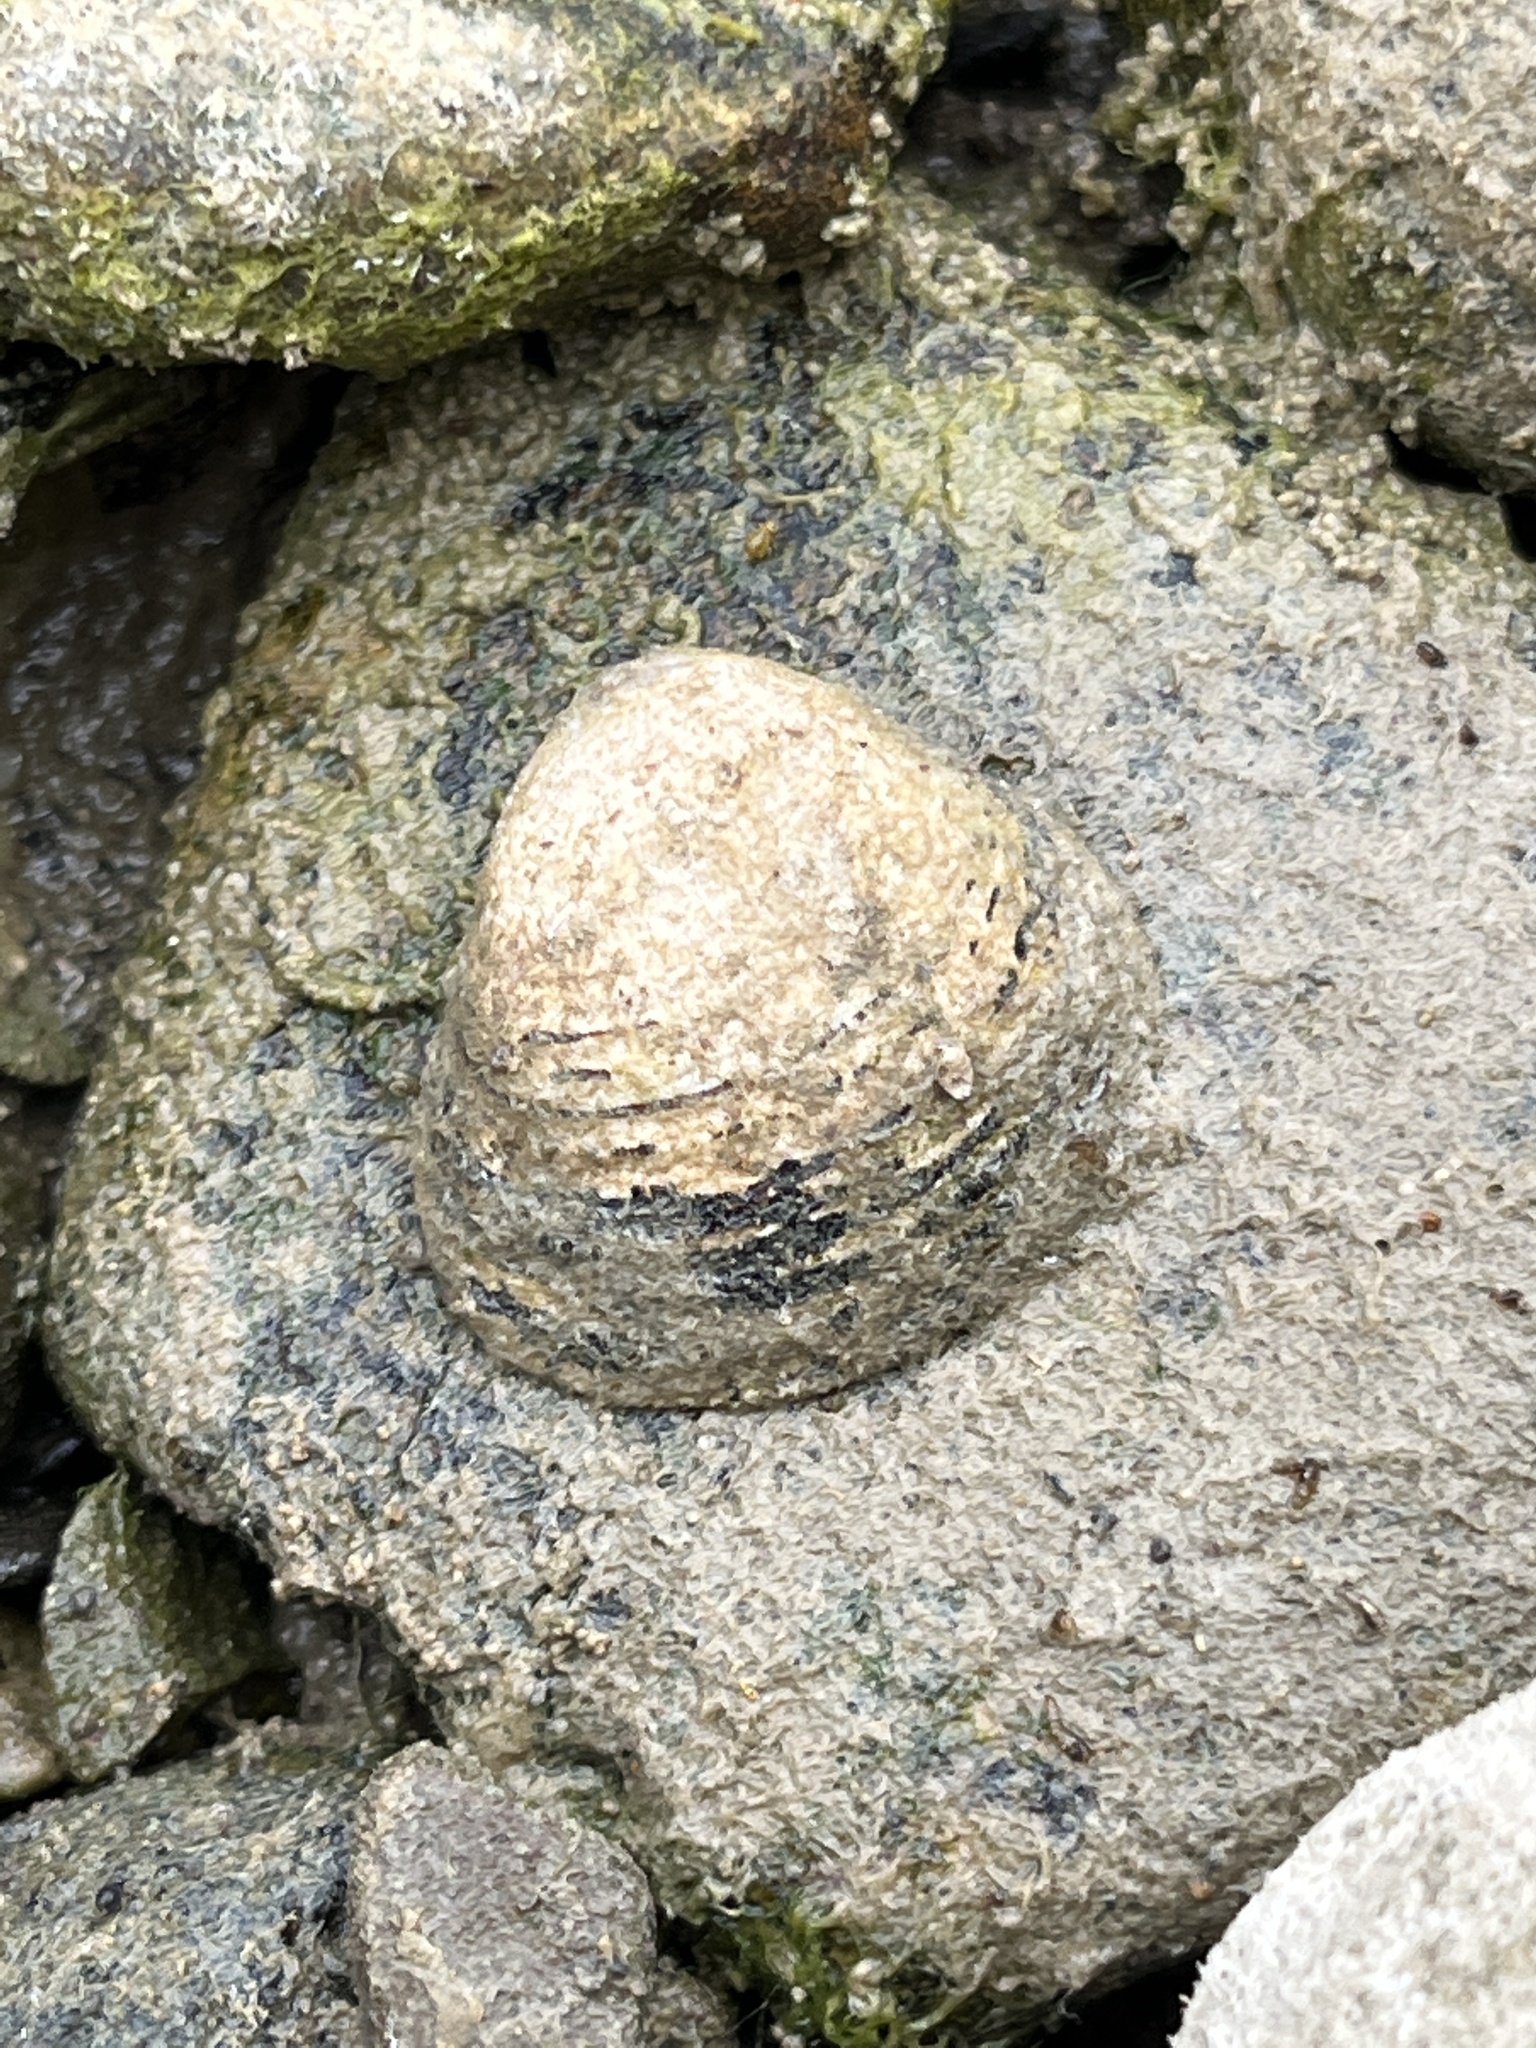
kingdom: Animalia
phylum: Mollusca
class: Bivalvia
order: Venerida
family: Cyrenidae
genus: Corbicula
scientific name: Corbicula fluminea
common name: Asian clam
